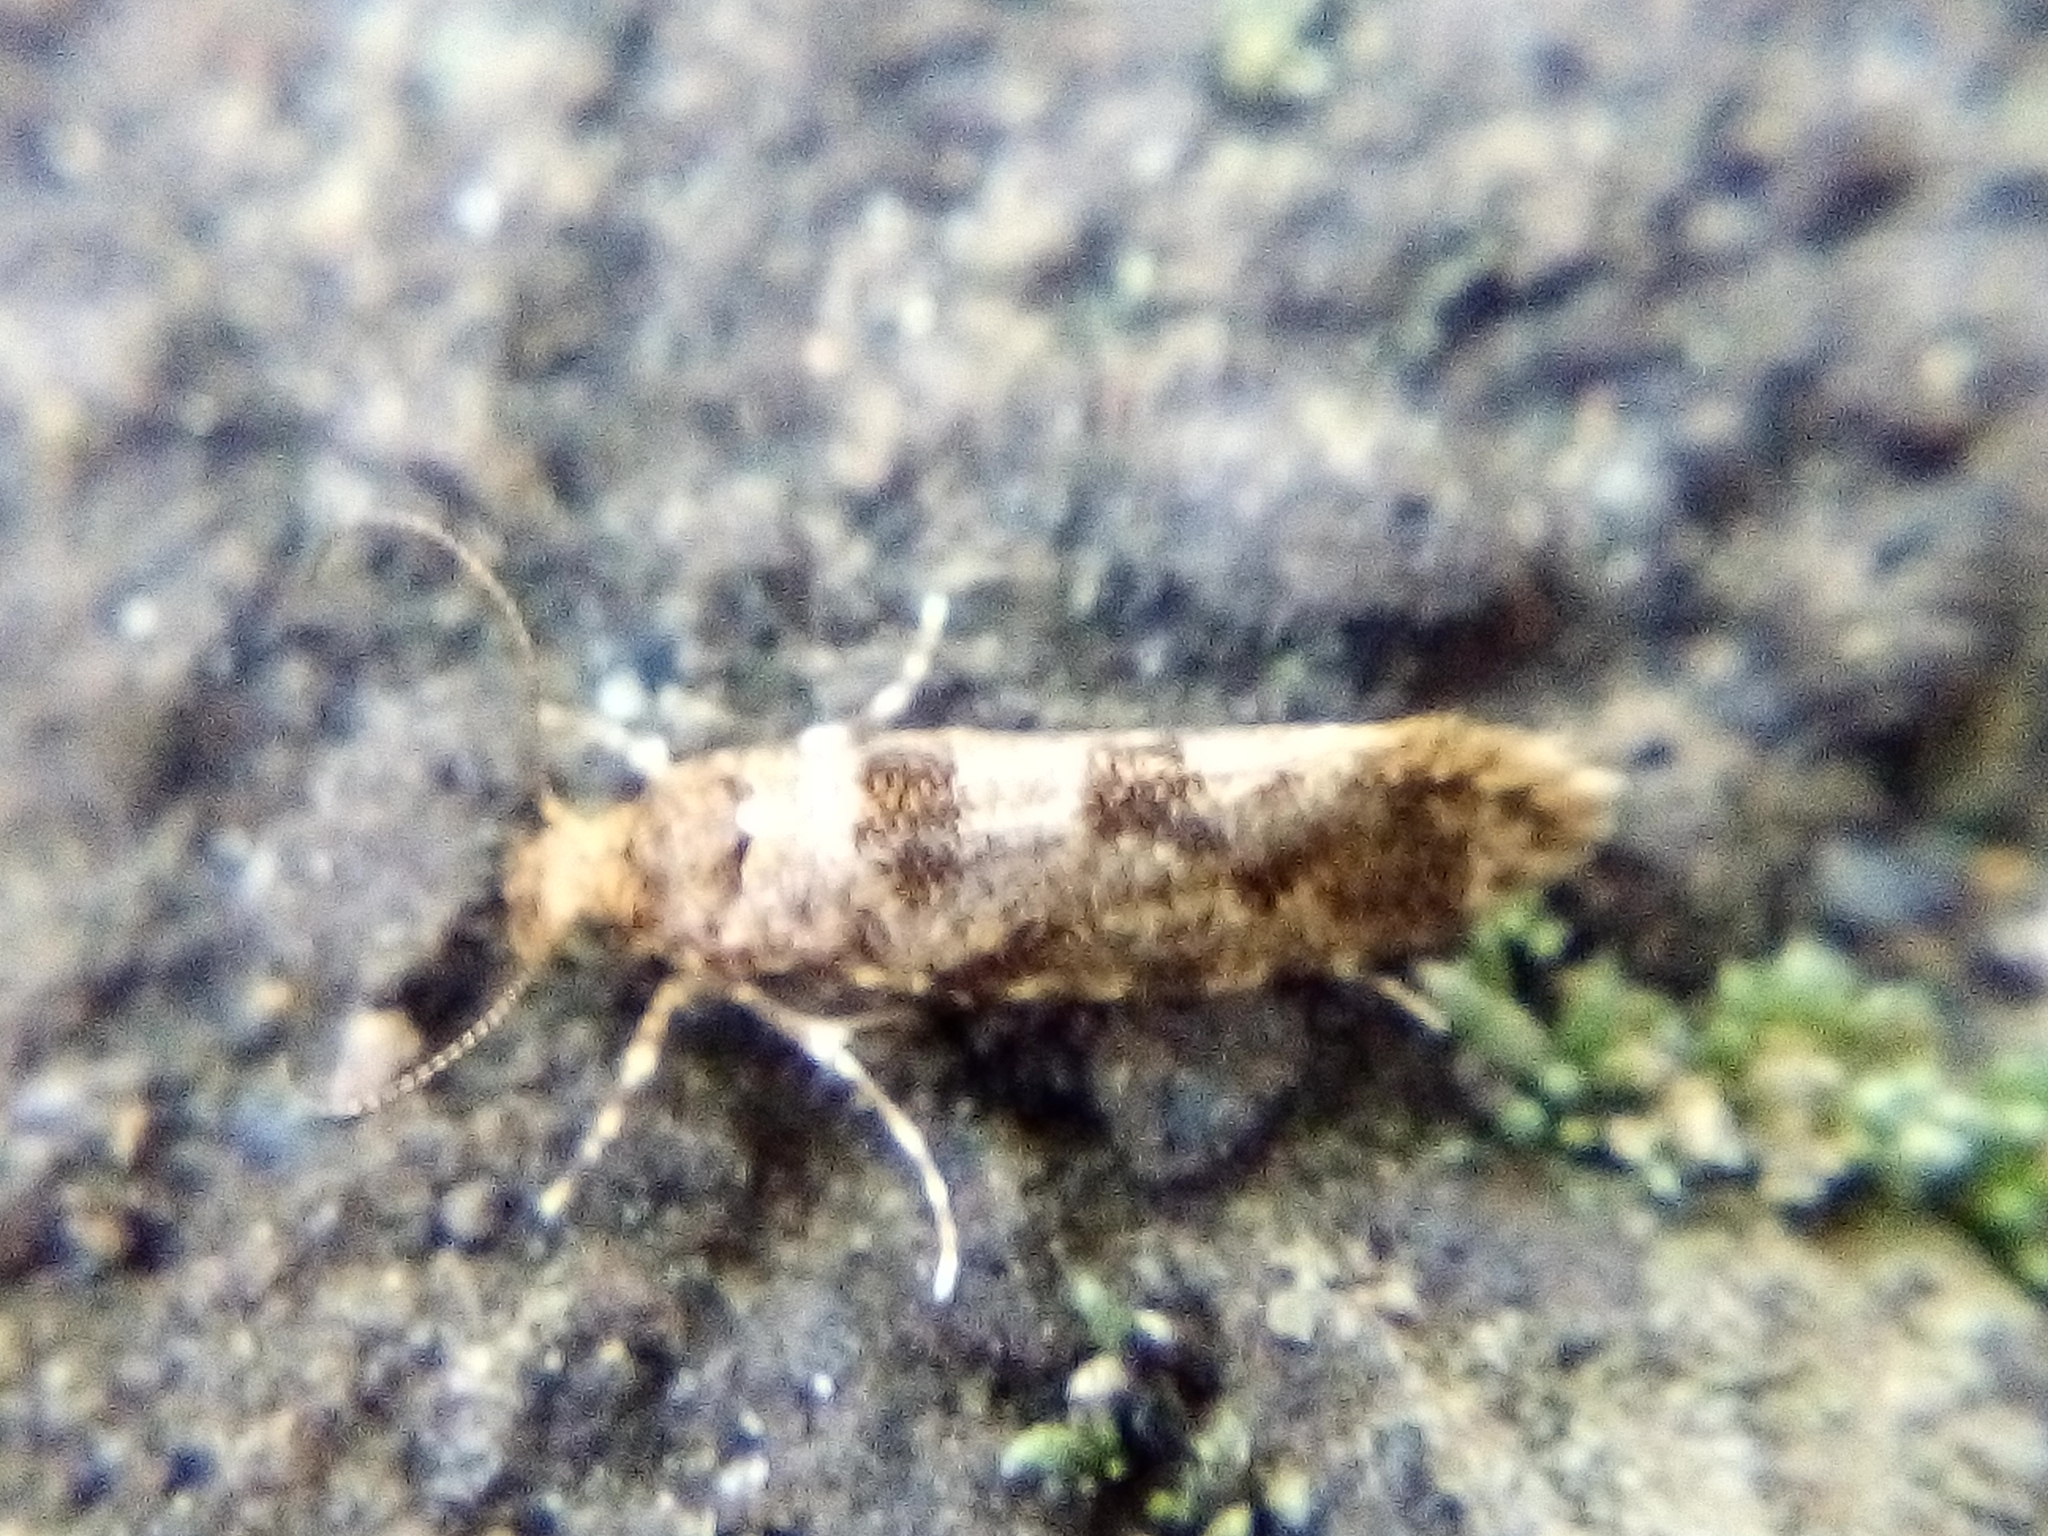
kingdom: Animalia
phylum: Arthropoda
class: Insecta
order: Lepidoptera
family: Tineidae
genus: Parochmastis
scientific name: Parochmastis hilderi
